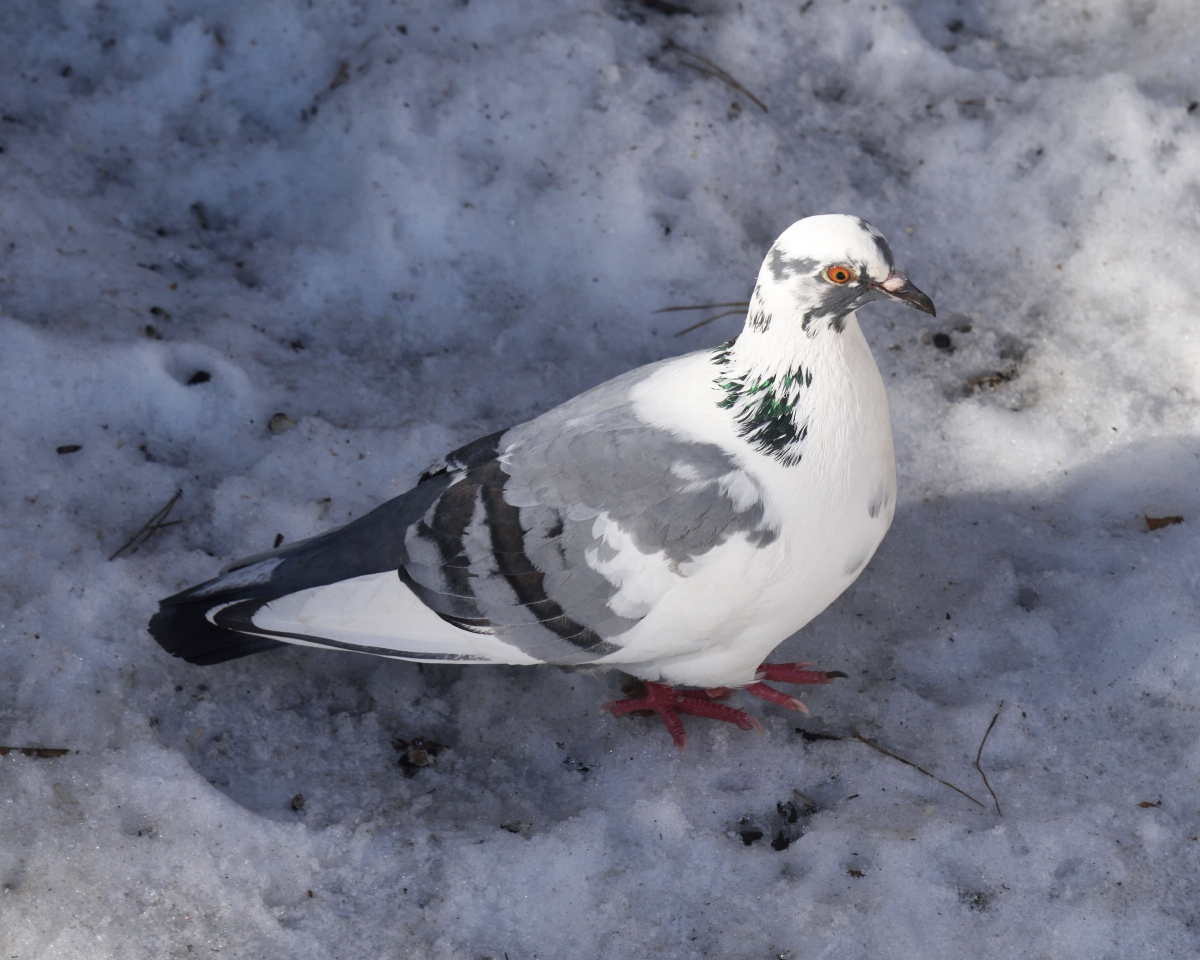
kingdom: Animalia
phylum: Chordata
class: Aves
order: Columbiformes
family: Columbidae
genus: Columba
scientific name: Columba livia
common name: Rock pigeon
